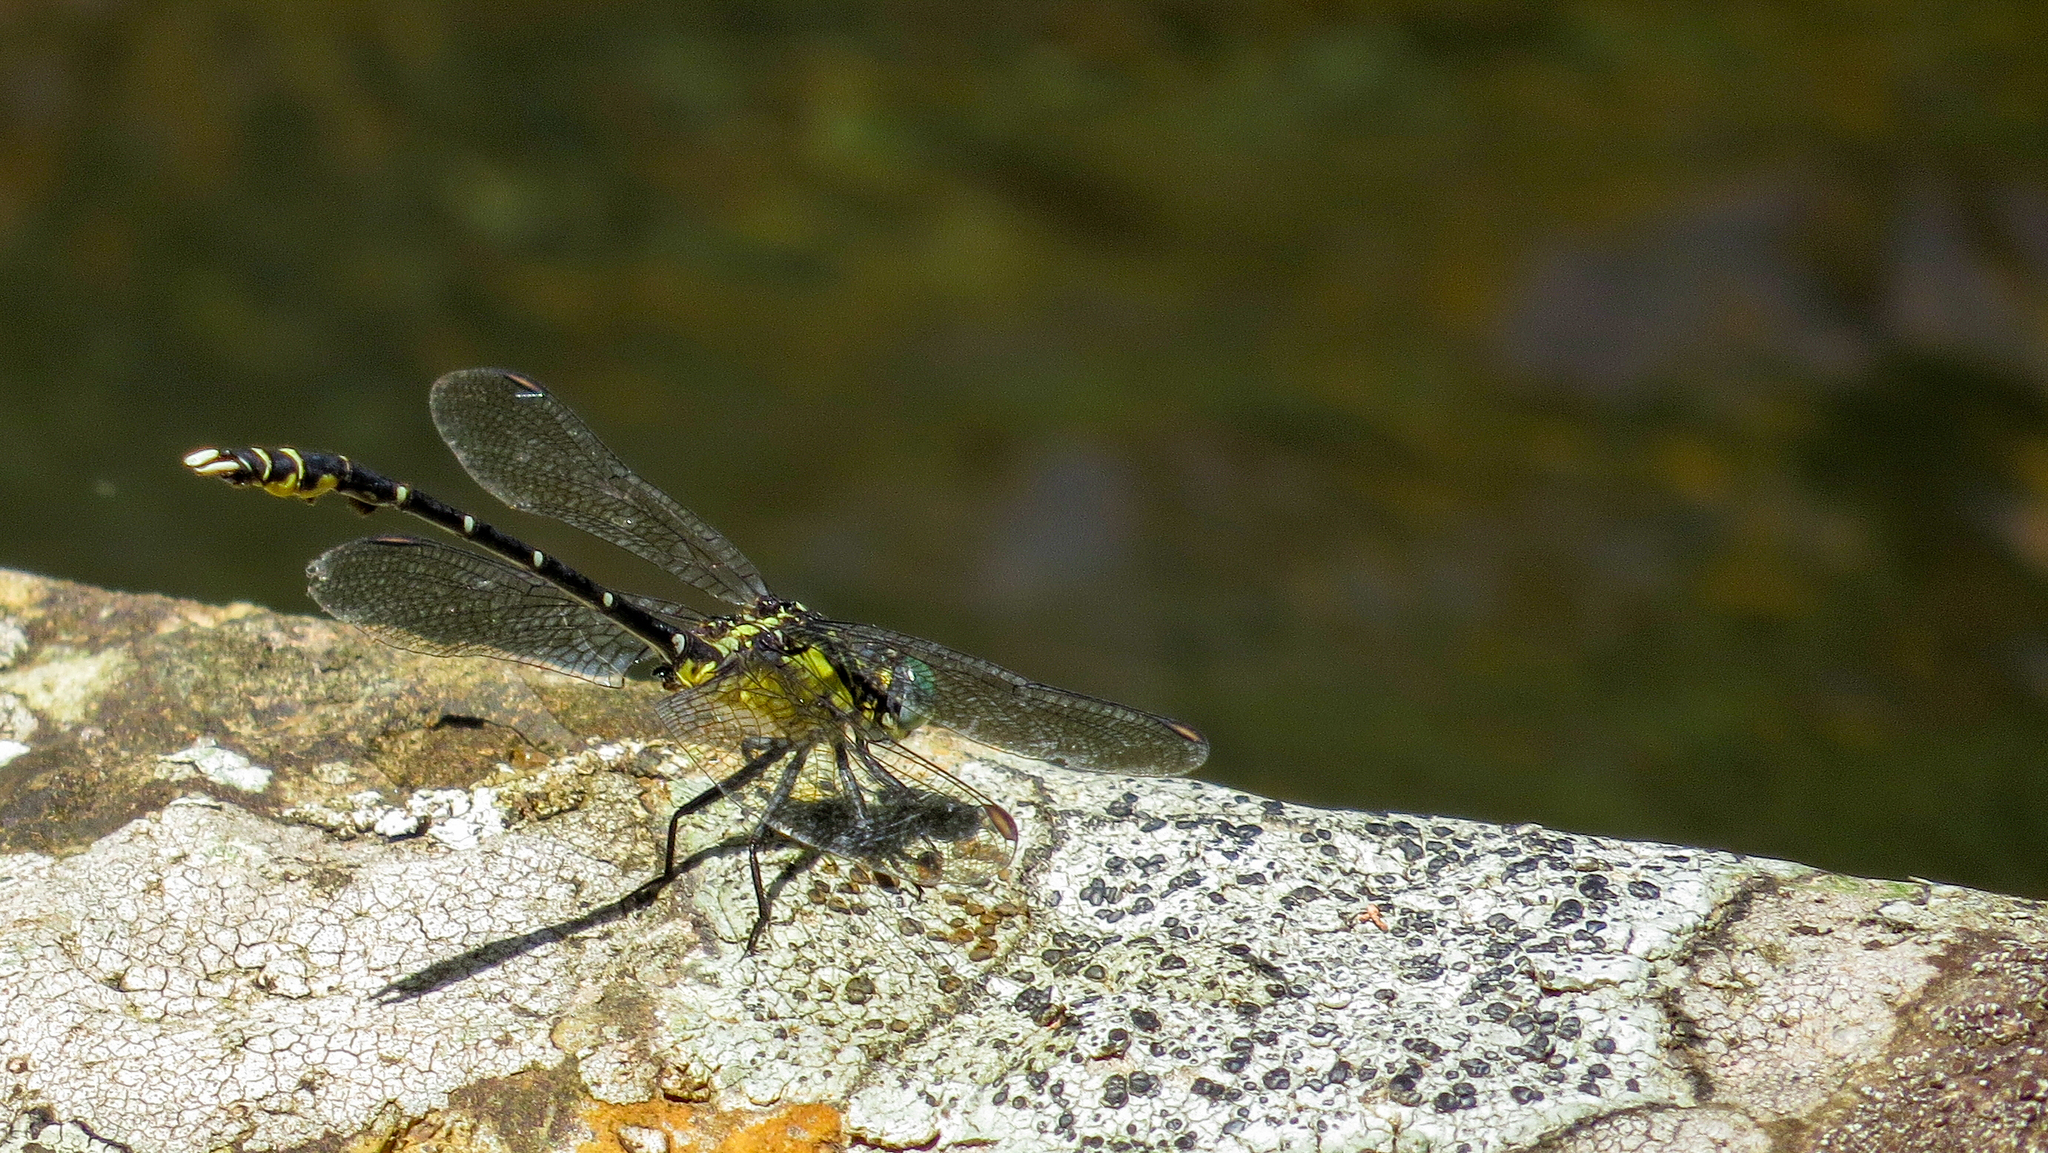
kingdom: Animalia
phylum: Arthropoda
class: Insecta
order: Odonata
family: Gomphidae
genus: Hemigomphus
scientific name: Hemigomphus gouldii
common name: Southern vicetail
